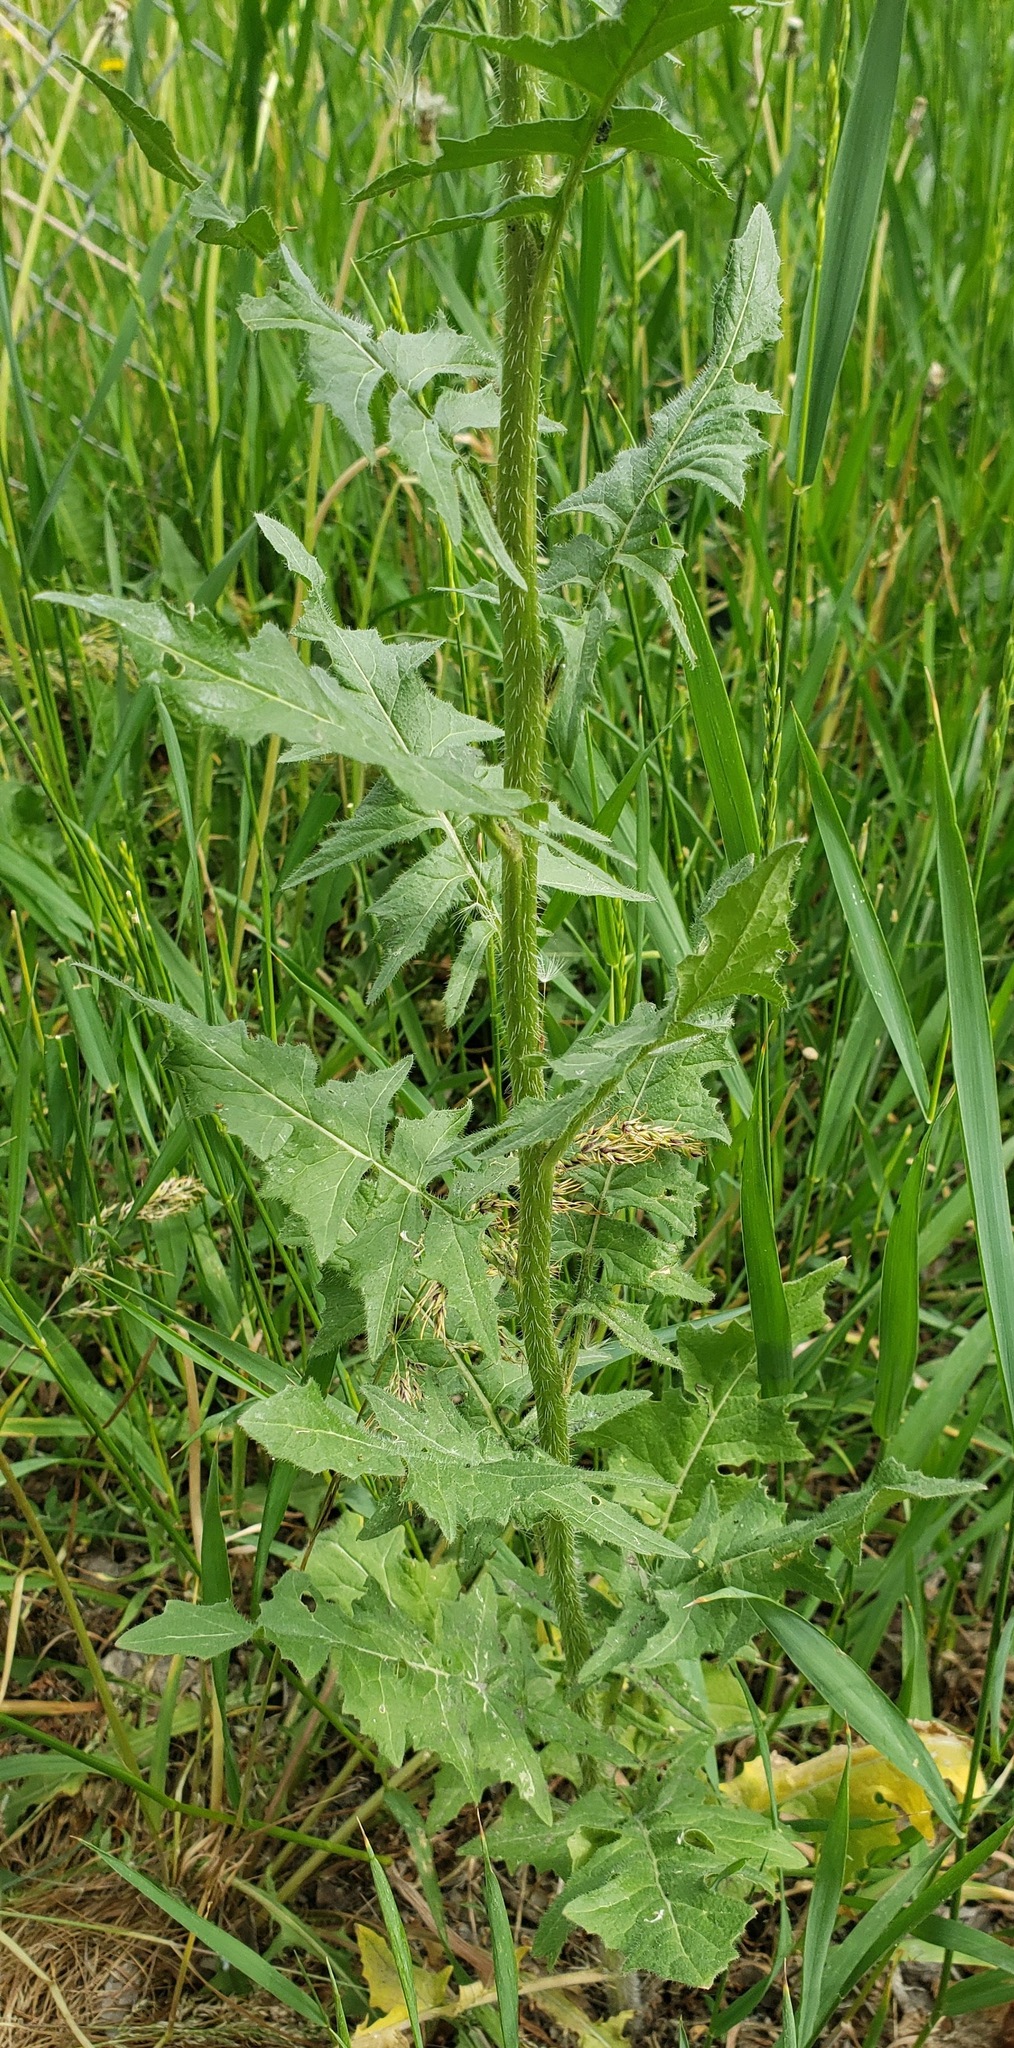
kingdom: Plantae
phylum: Tracheophyta
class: Magnoliopsida
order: Brassicales
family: Brassicaceae
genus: Sisymbrium
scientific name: Sisymbrium loeselii
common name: False london-rocket
